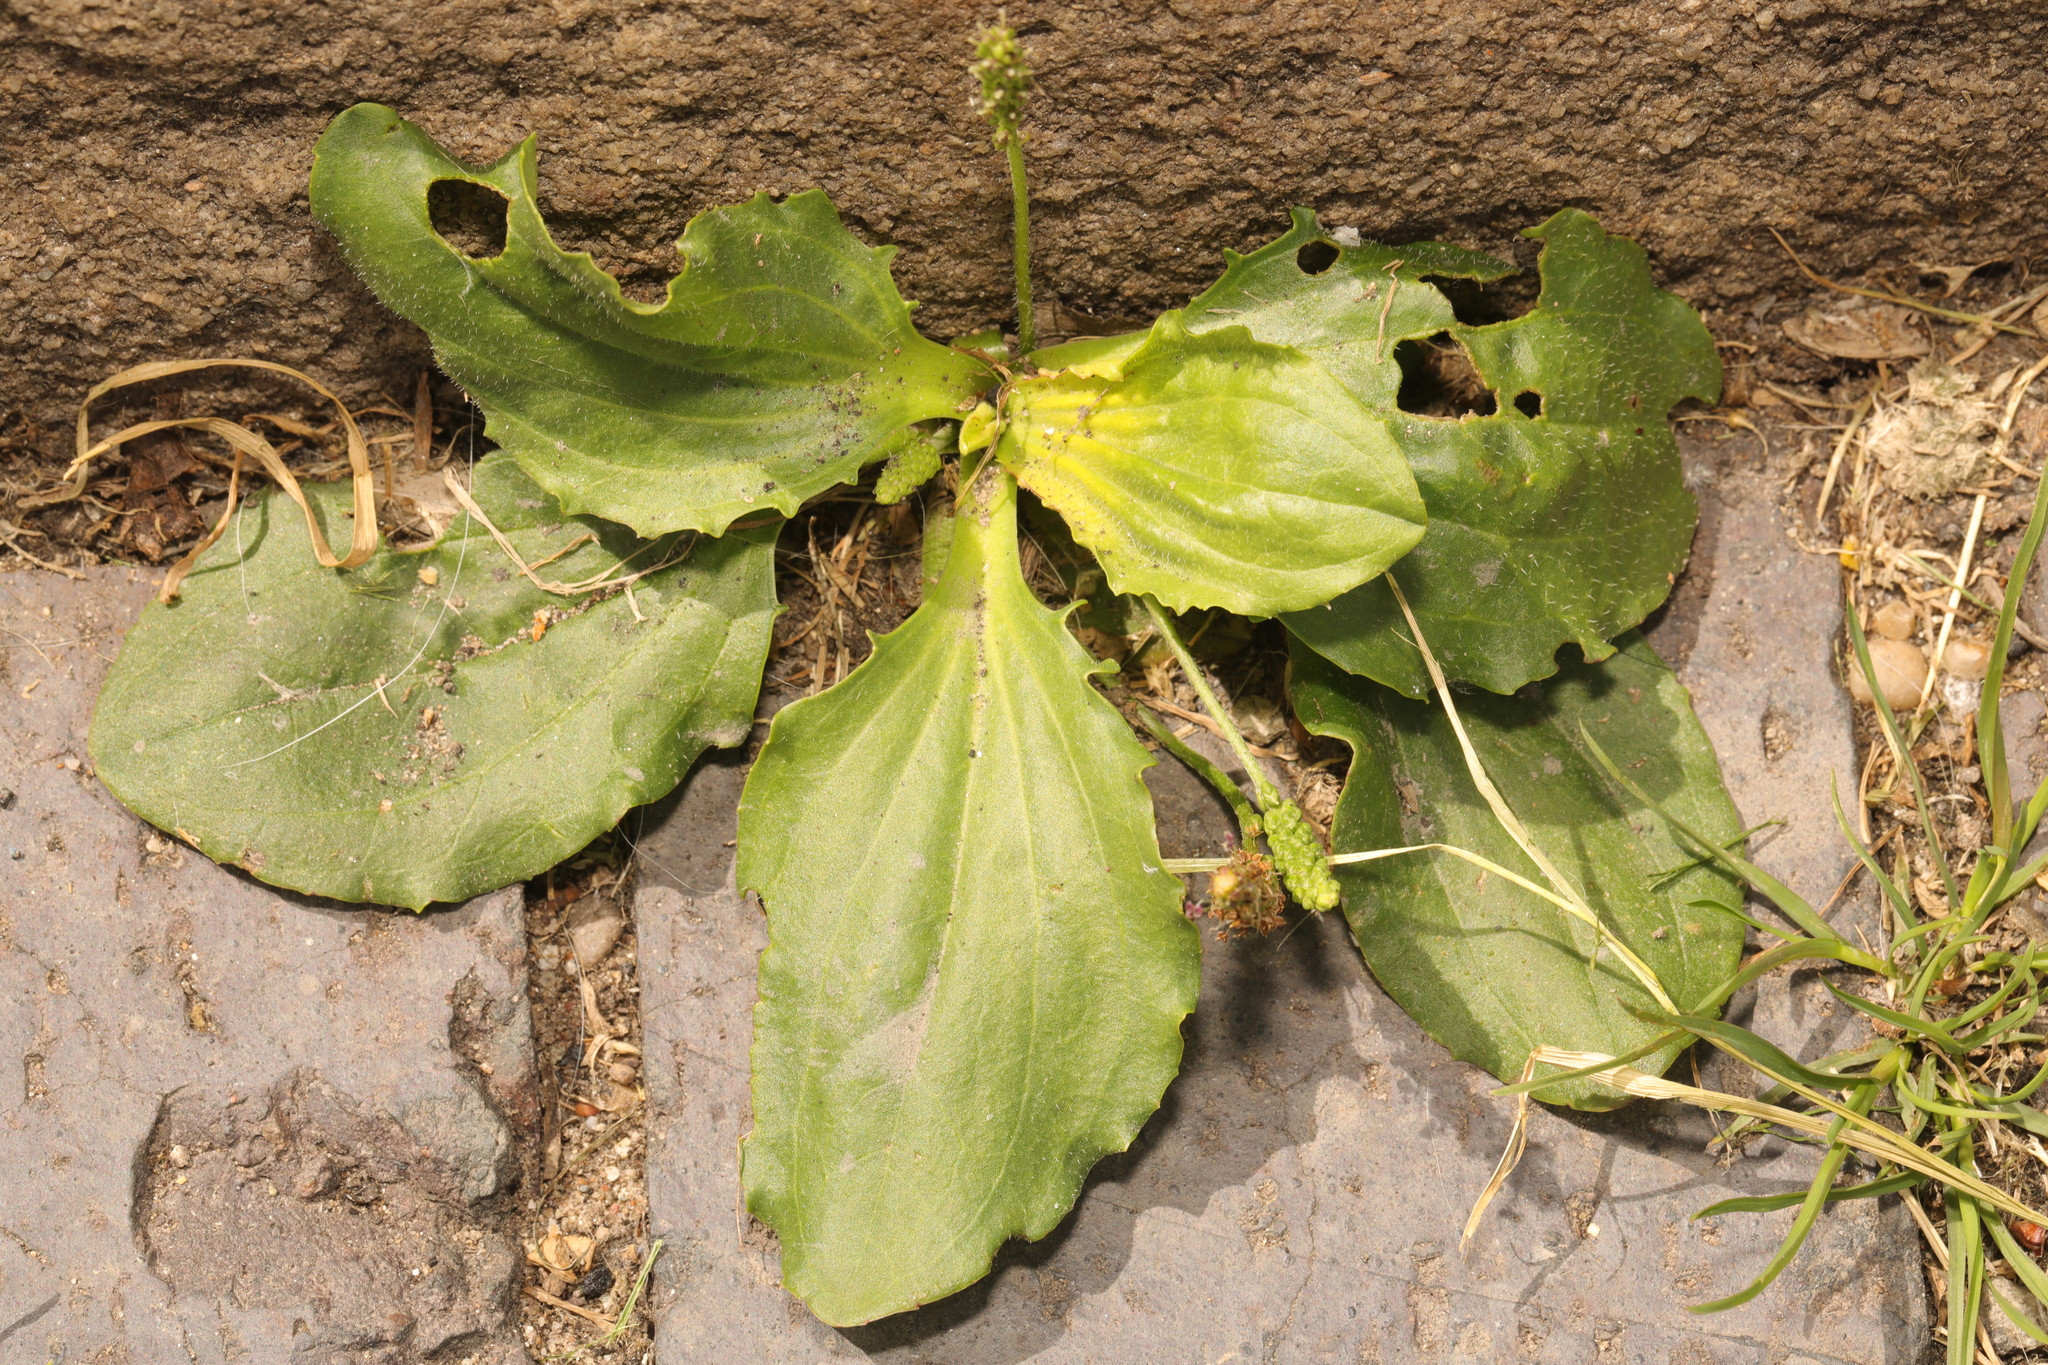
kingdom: Plantae
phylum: Tracheophyta
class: Magnoliopsida
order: Lamiales
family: Plantaginaceae
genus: Plantago
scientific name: Plantago major
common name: Common plantain
